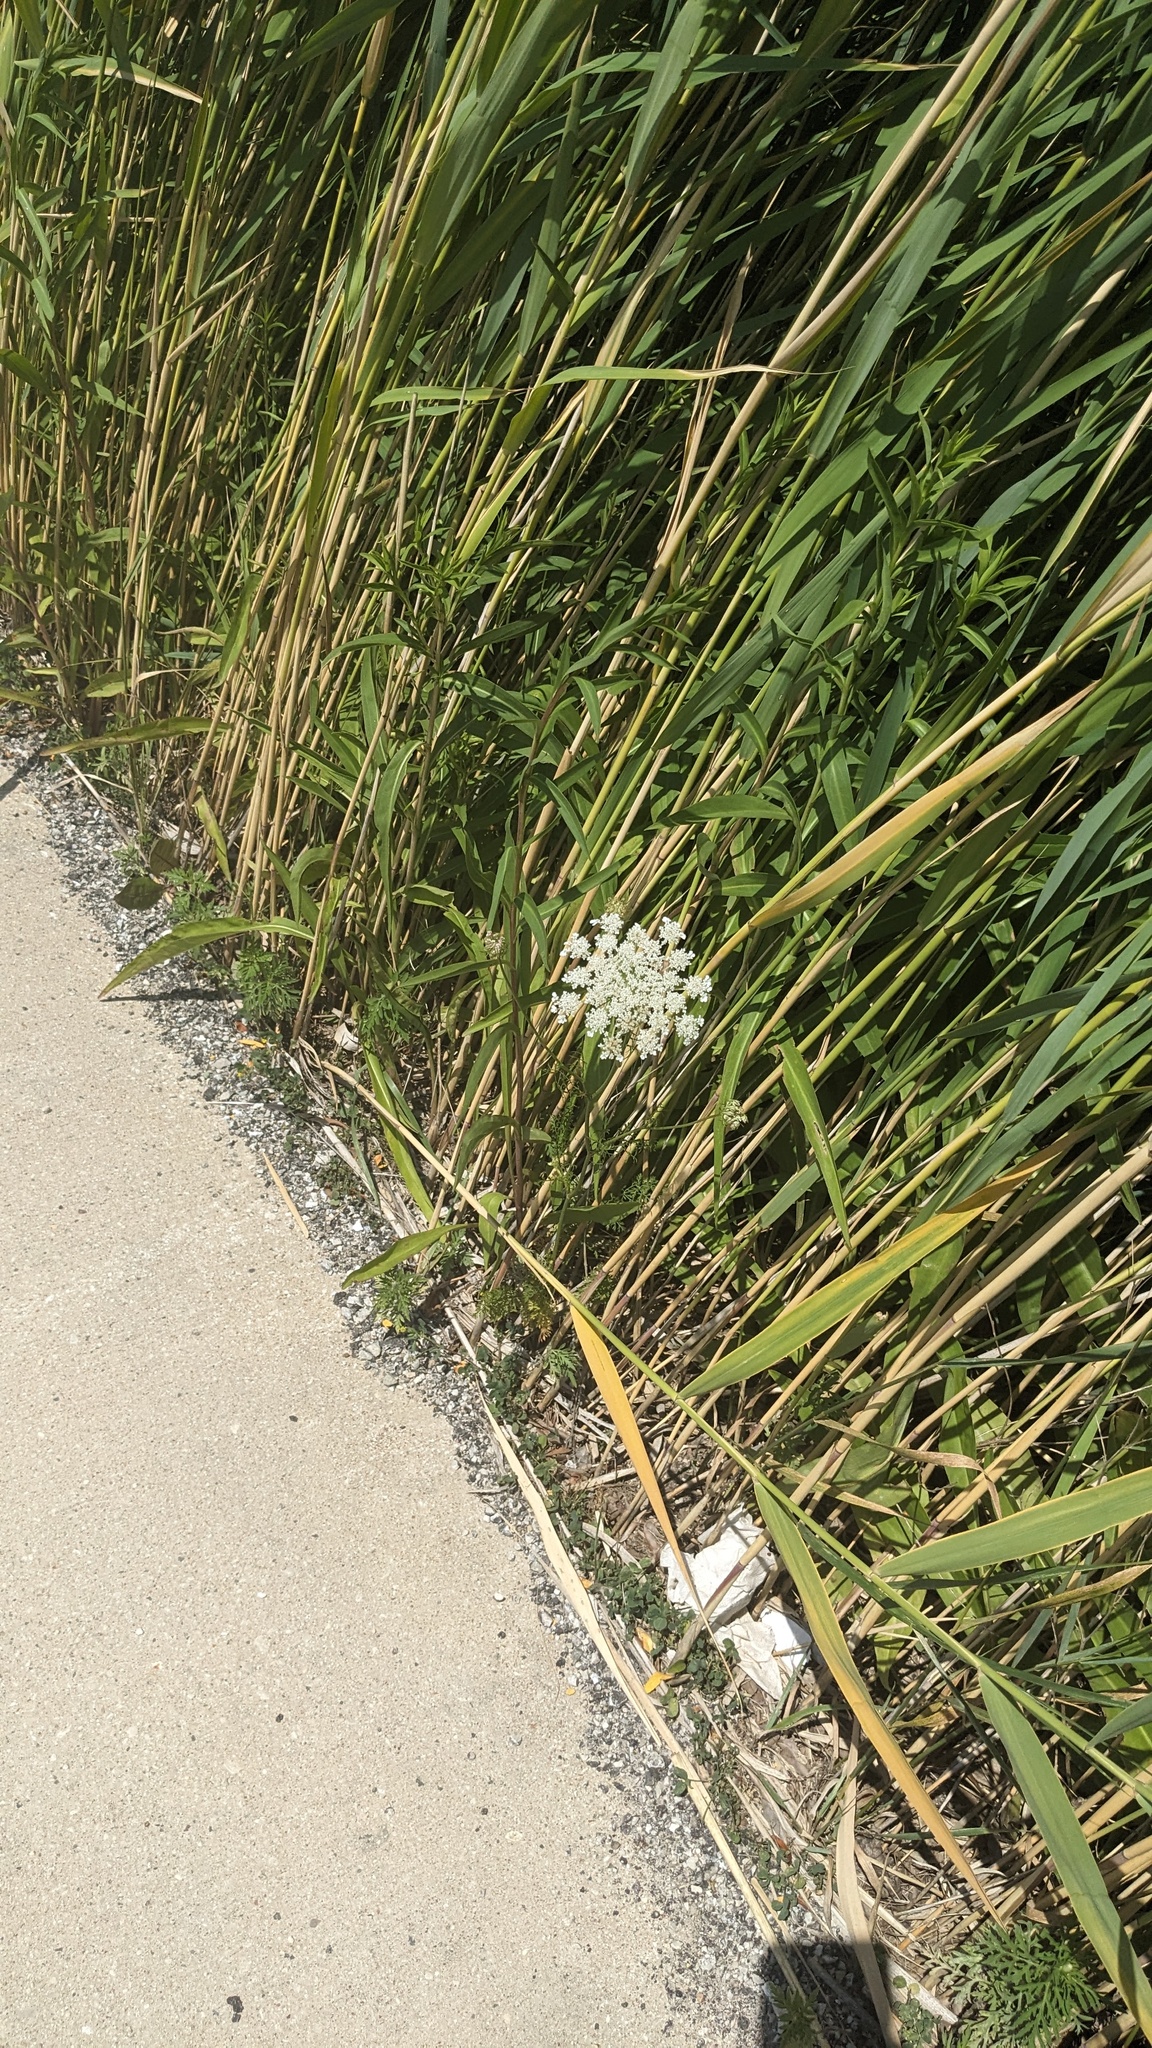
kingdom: Plantae
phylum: Tracheophyta
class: Magnoliopsida
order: Apiales
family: Apiaceae
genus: Daucus
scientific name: Daucus carota
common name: Wild carrot
